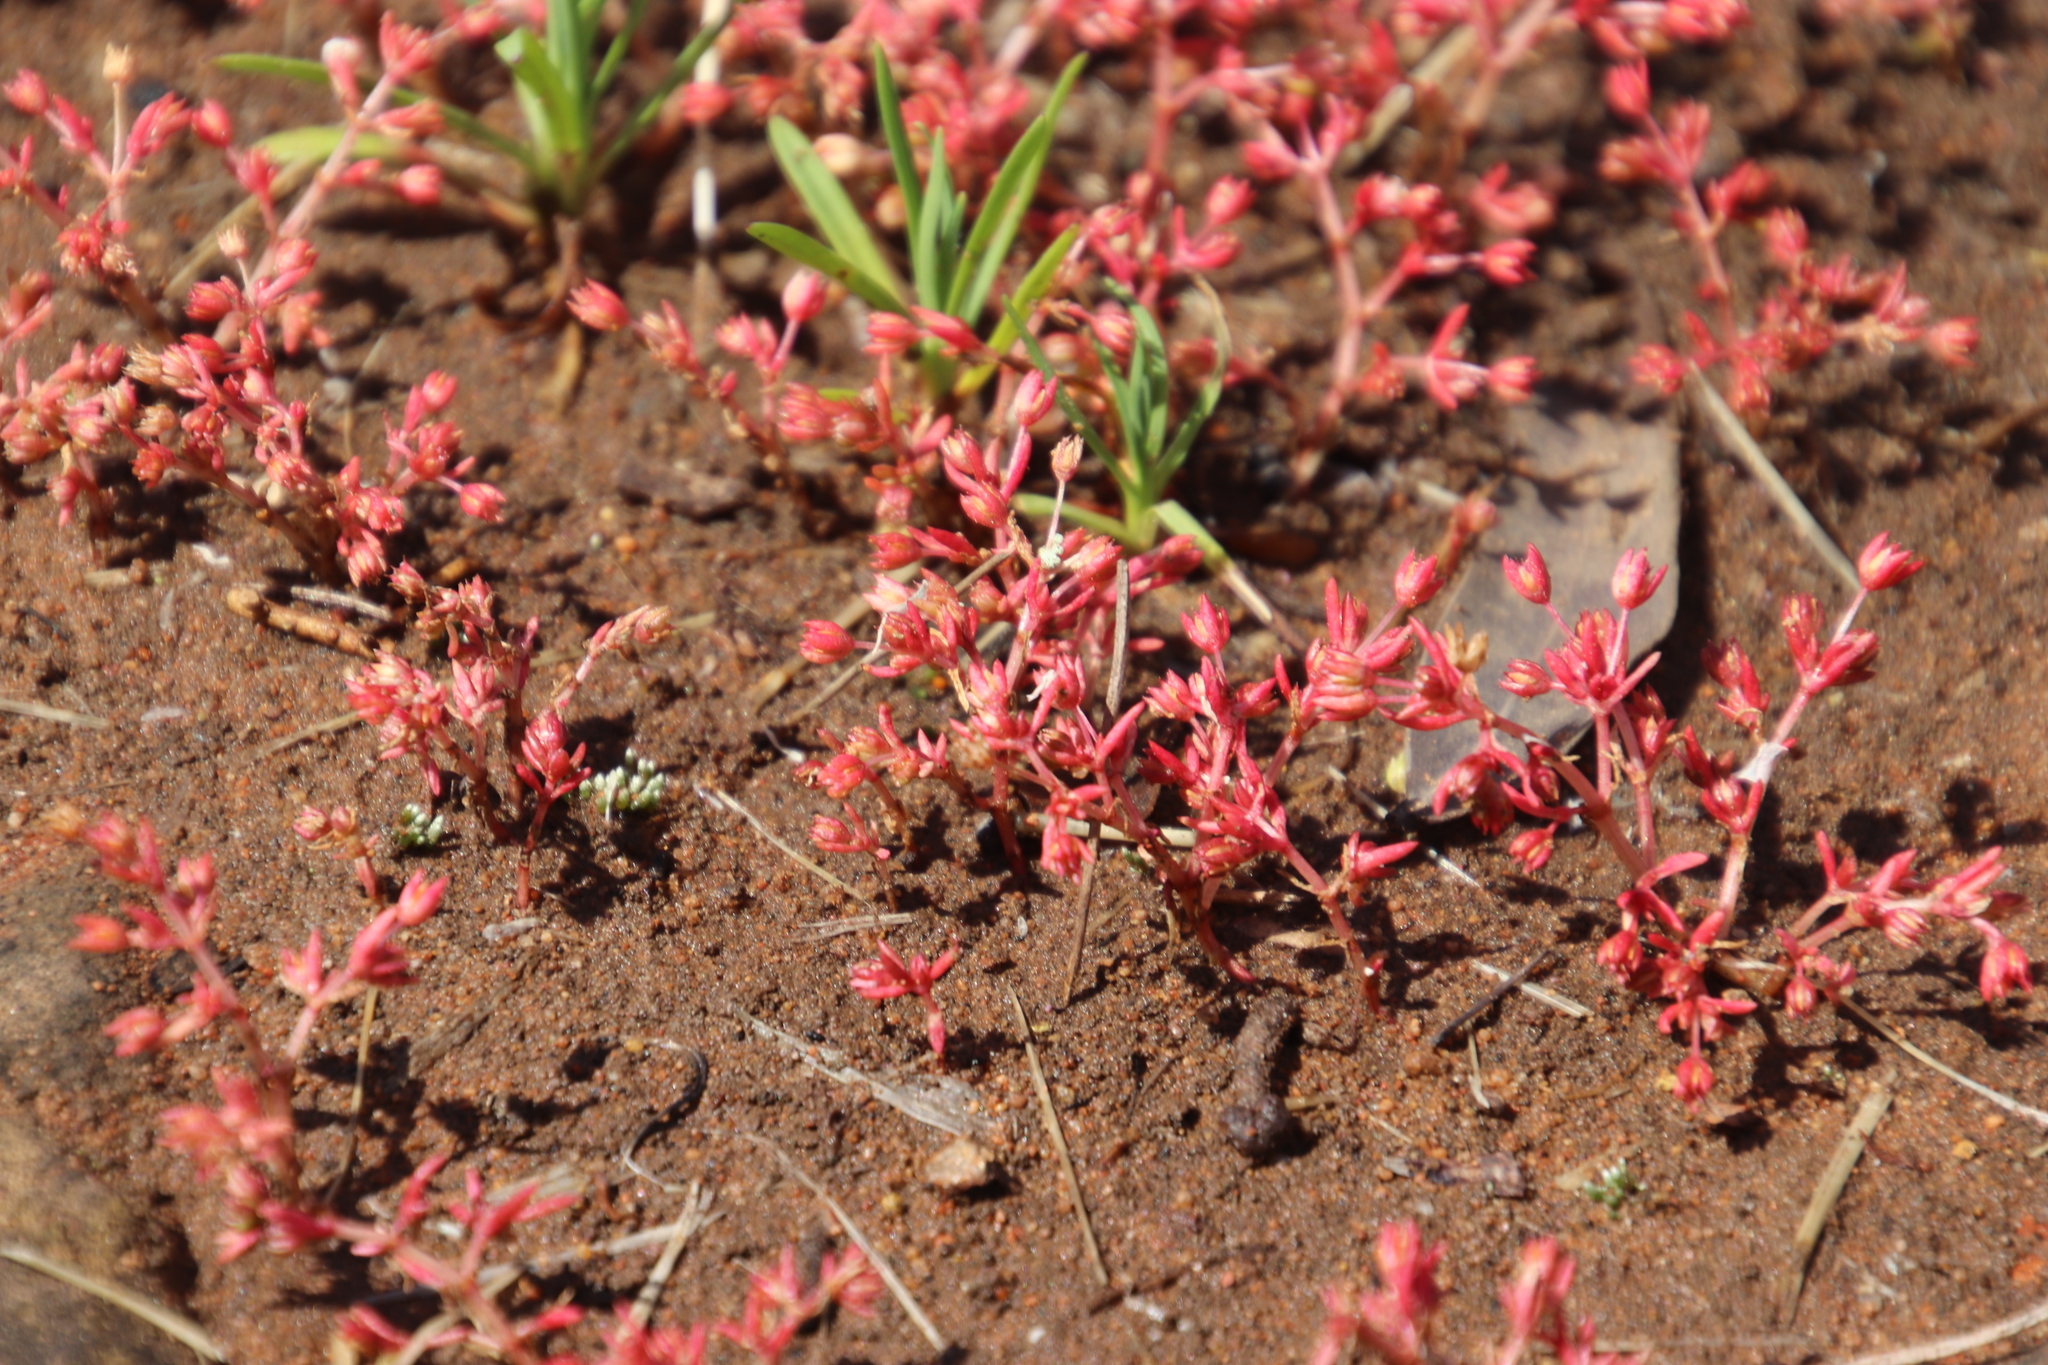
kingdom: Plantae
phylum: Tracheophyta
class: Magnoliopsida
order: Saxifragales
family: Crassulaceae
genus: Crassula
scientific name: Crassula vaillantii
